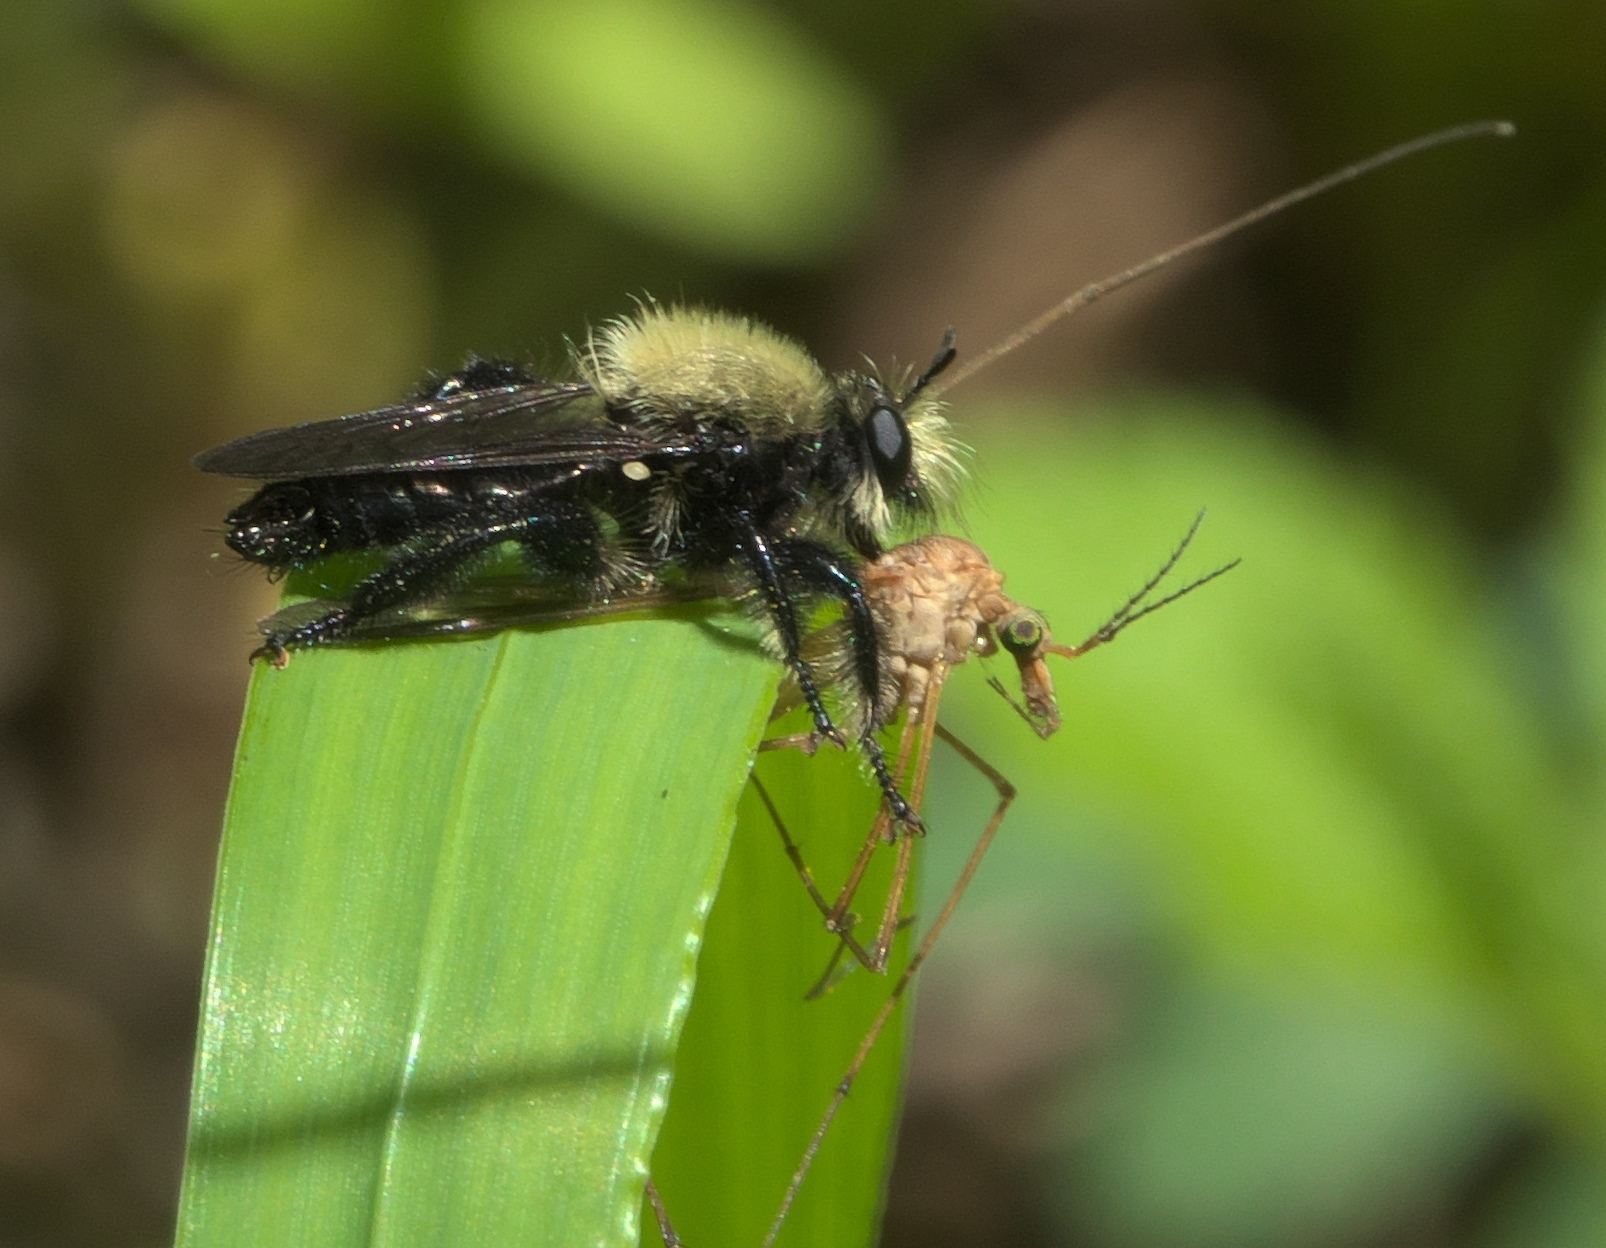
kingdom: Animalia
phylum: Arthropoda
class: Insecta
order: Diptera
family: Asilidae
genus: Laphria
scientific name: Laphria flavicollis
